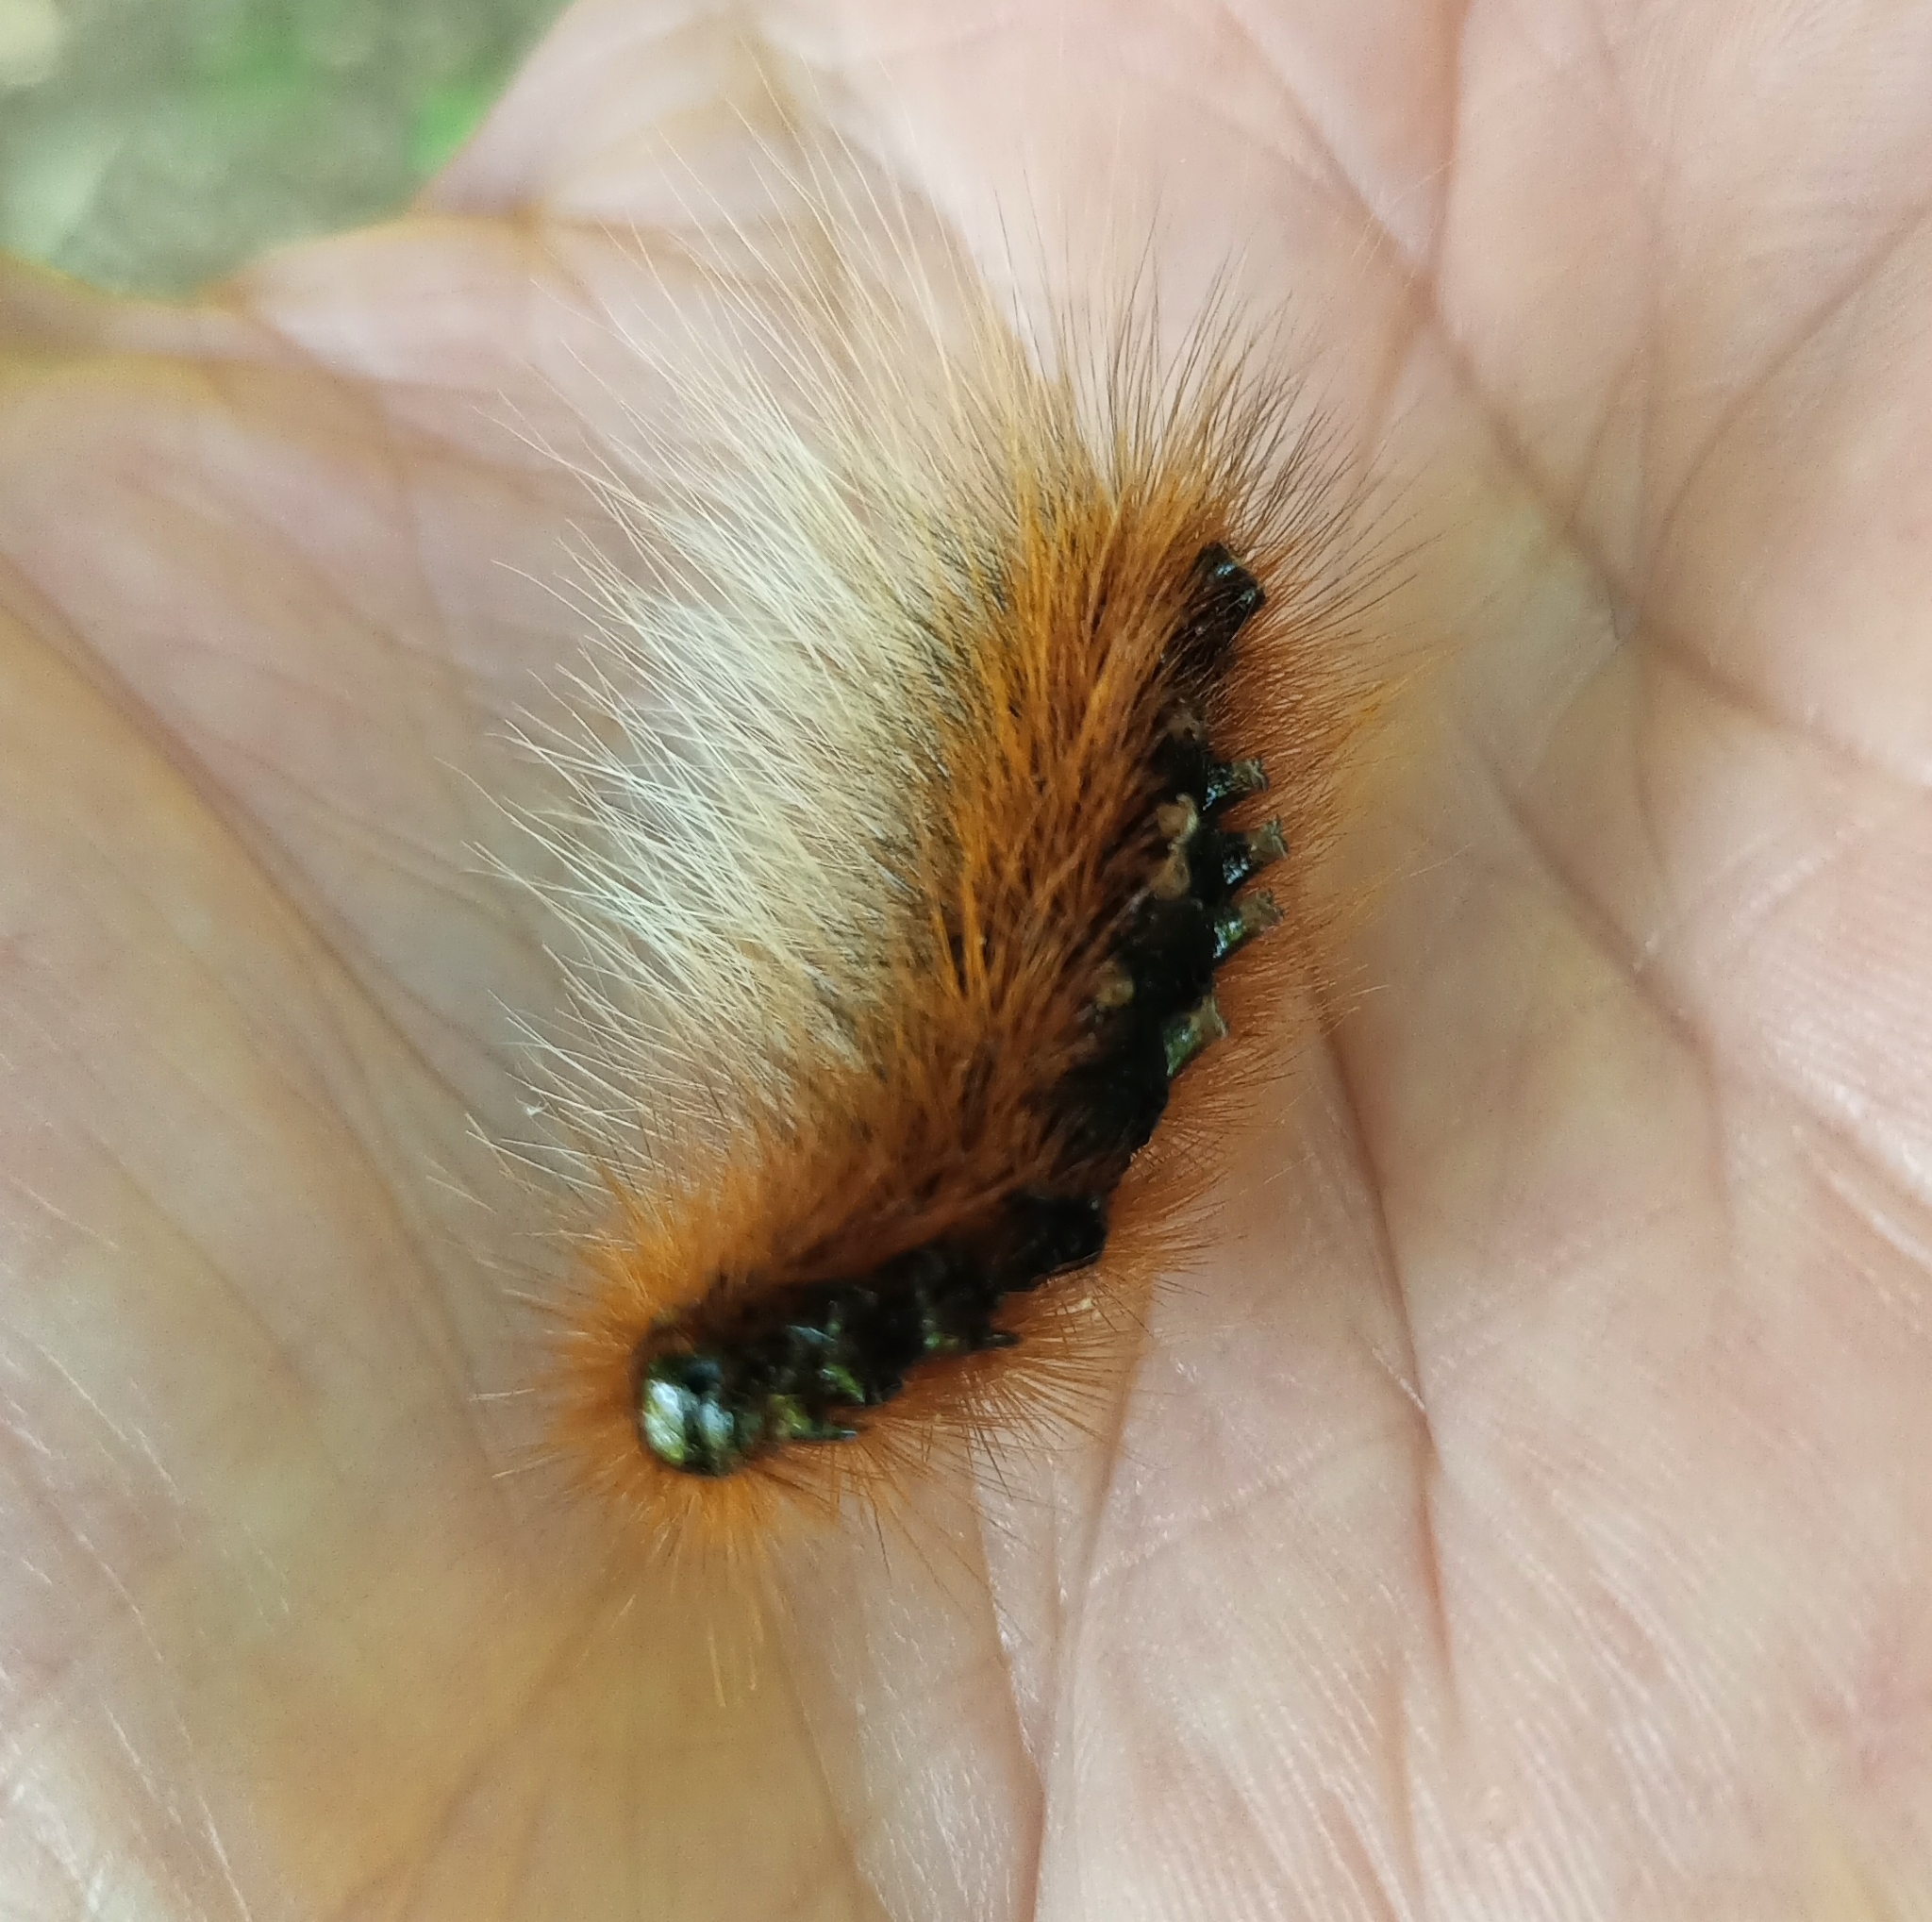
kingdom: Animalia
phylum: Arthropoda
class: Insecta
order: Lepidoptera
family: Erebidae
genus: Arctia
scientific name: Arctia caja
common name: Garden tiger
